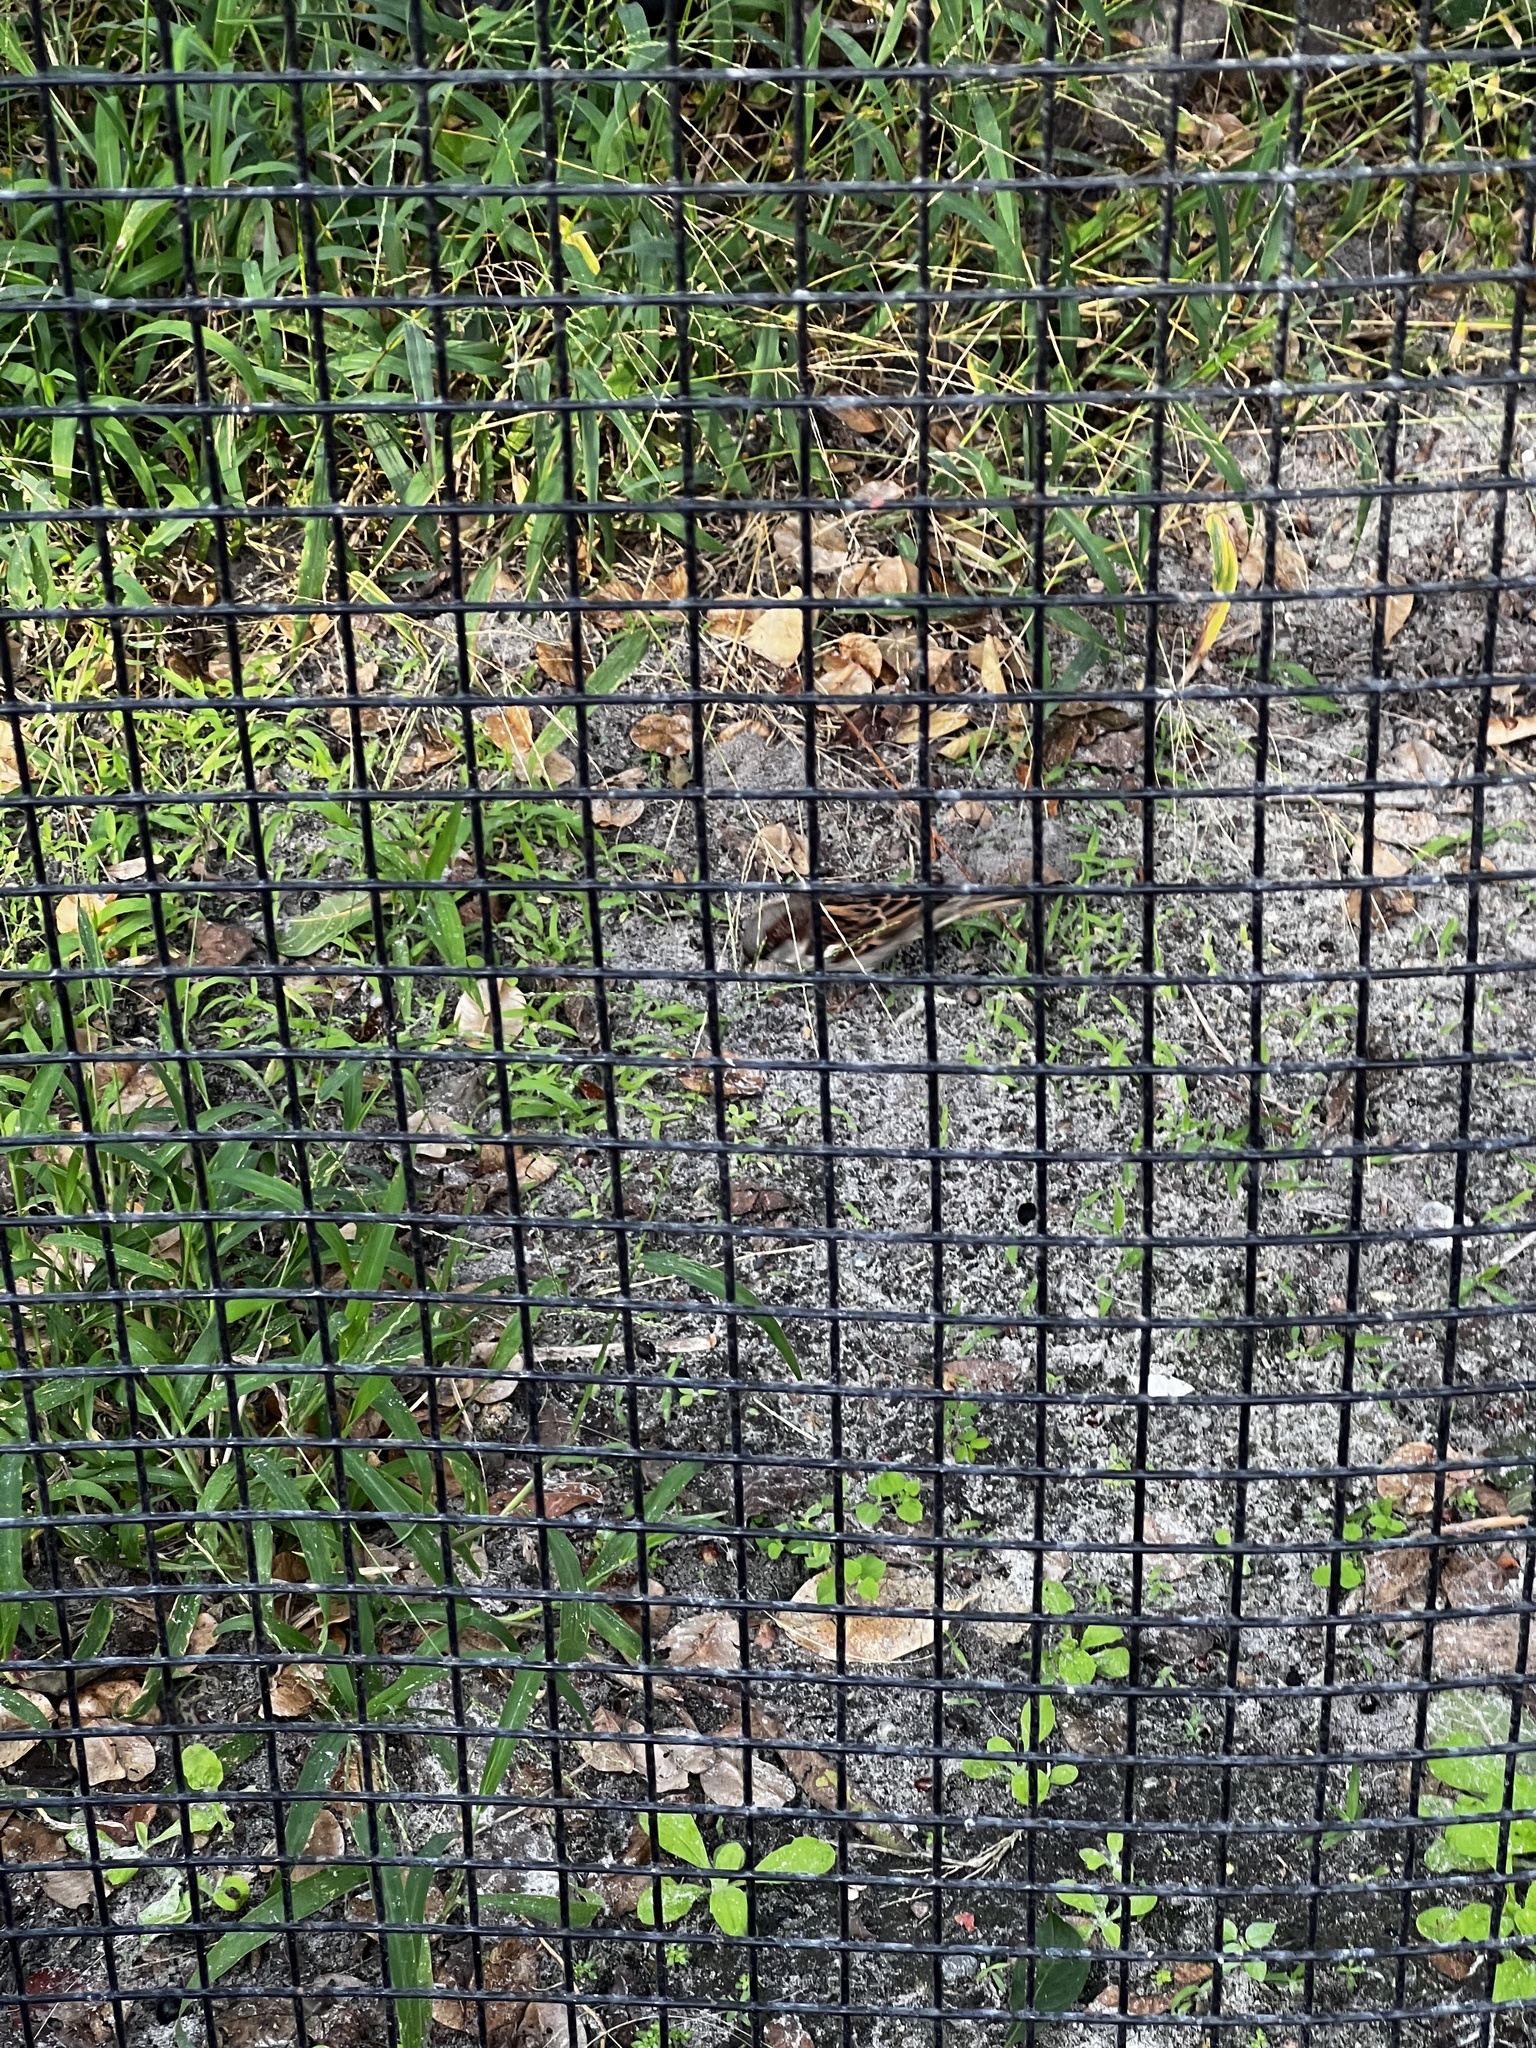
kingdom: Animalia
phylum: Chordata
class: Aves
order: Passeriformes
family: Passeridae
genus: Passer
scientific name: Passer domesticus
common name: House sparrow
